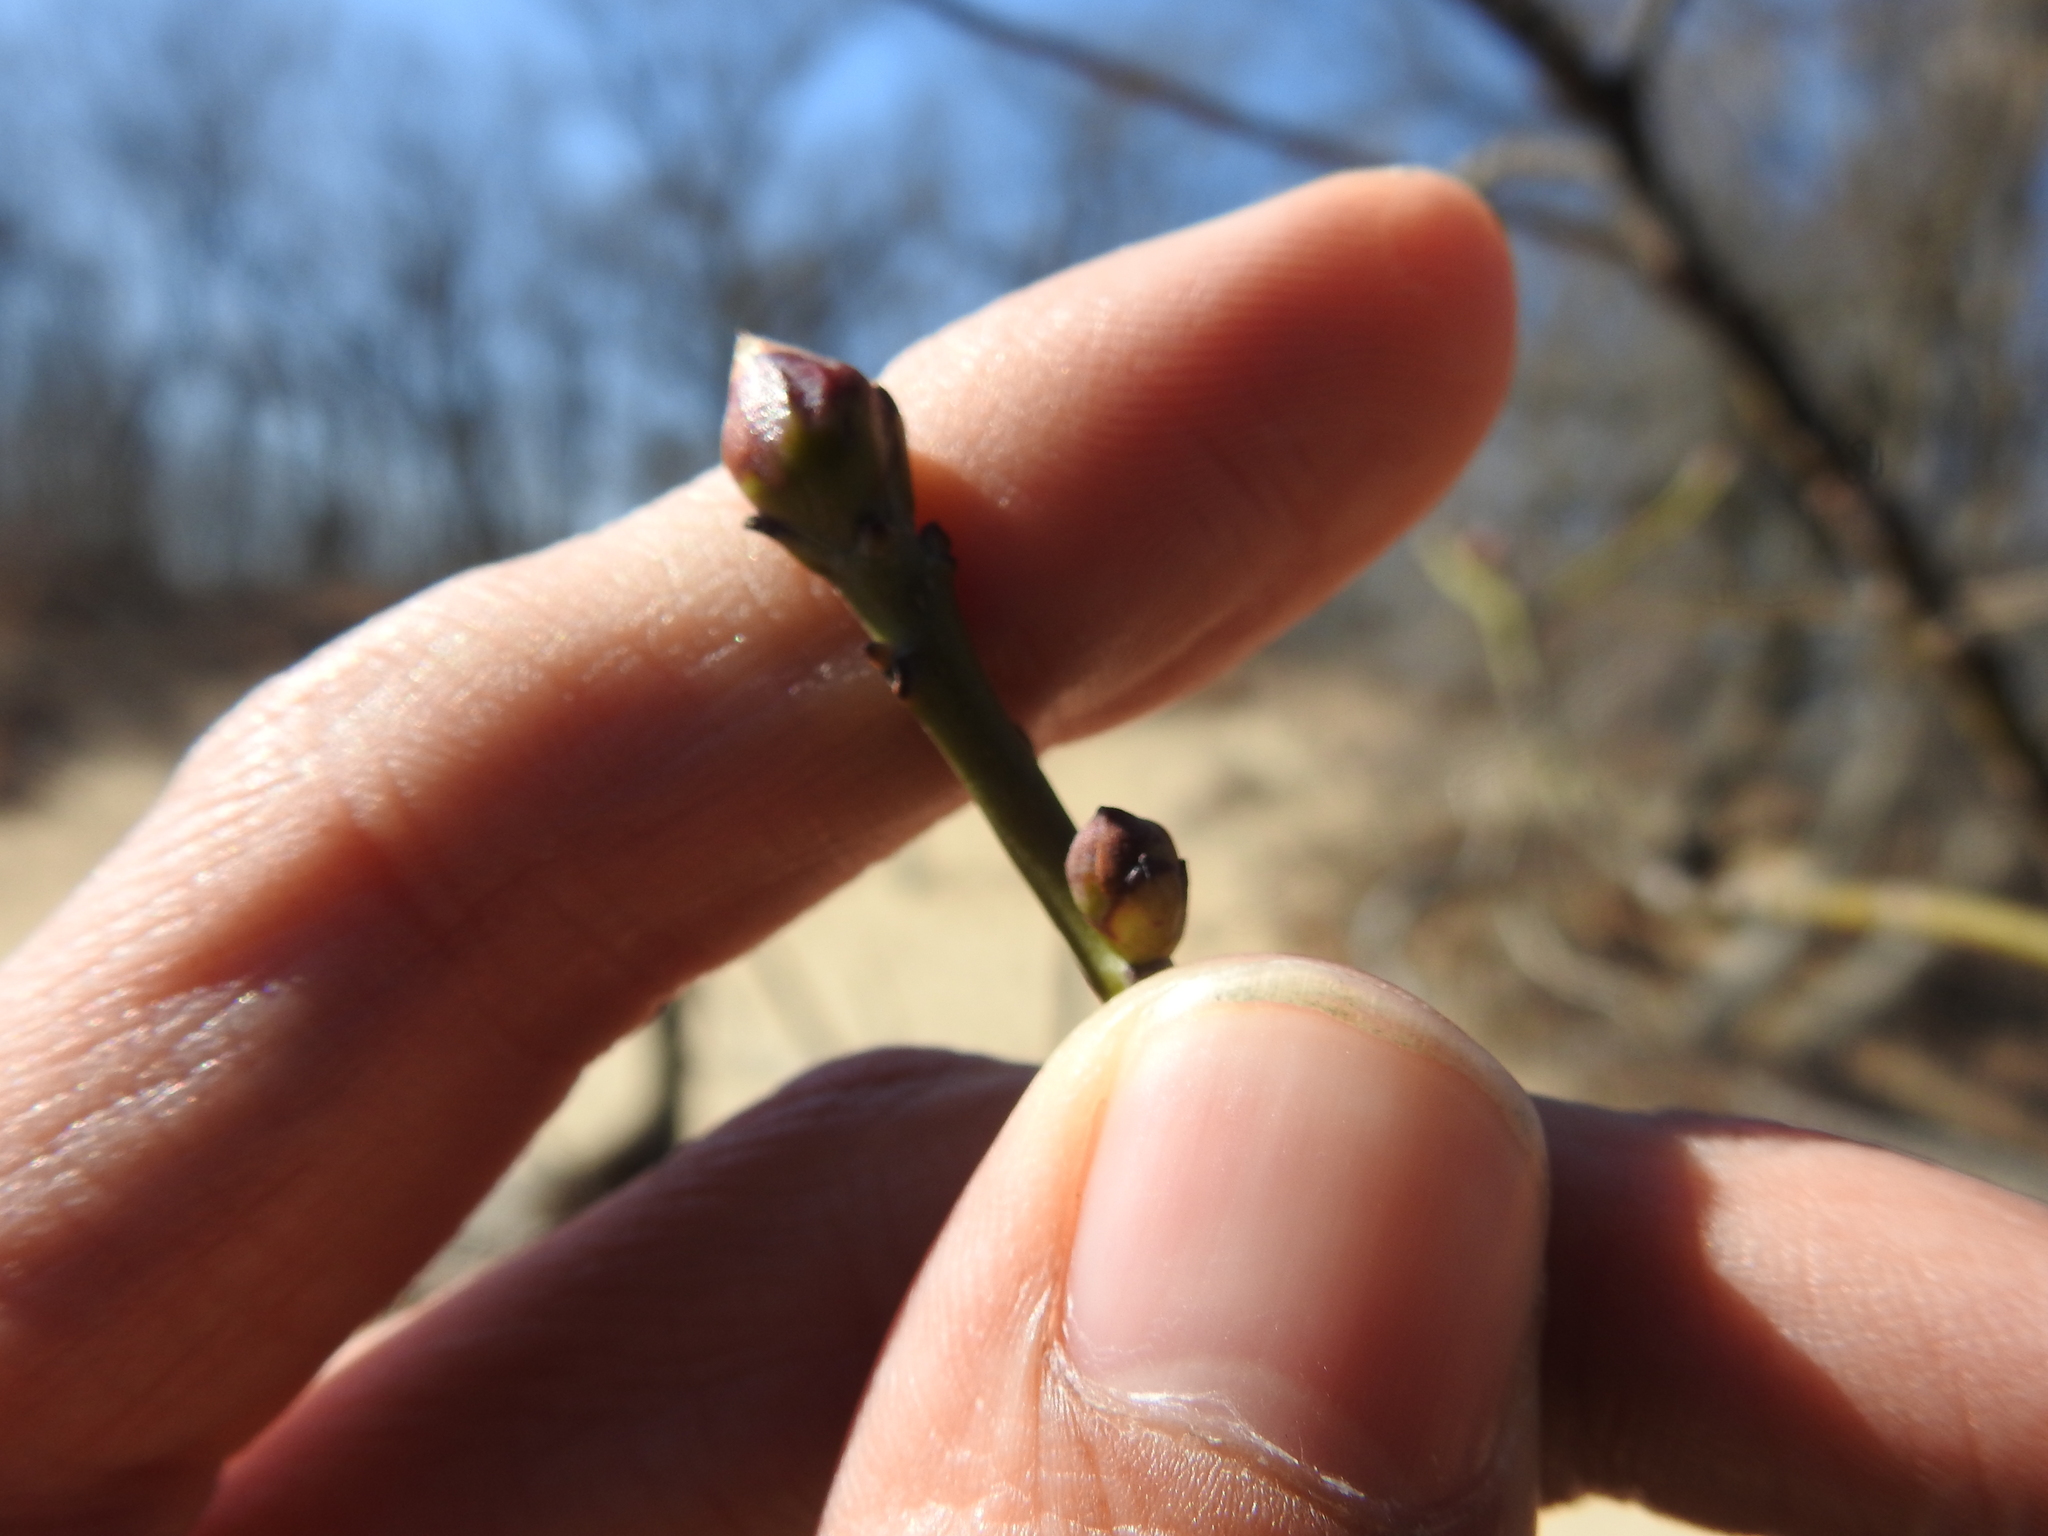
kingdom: Plantae
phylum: Tracheophyta
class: Magnoliopsida
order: Laurales
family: Lauraceae
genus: Sassafras
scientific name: Sassafras albidum
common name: Sassafras
